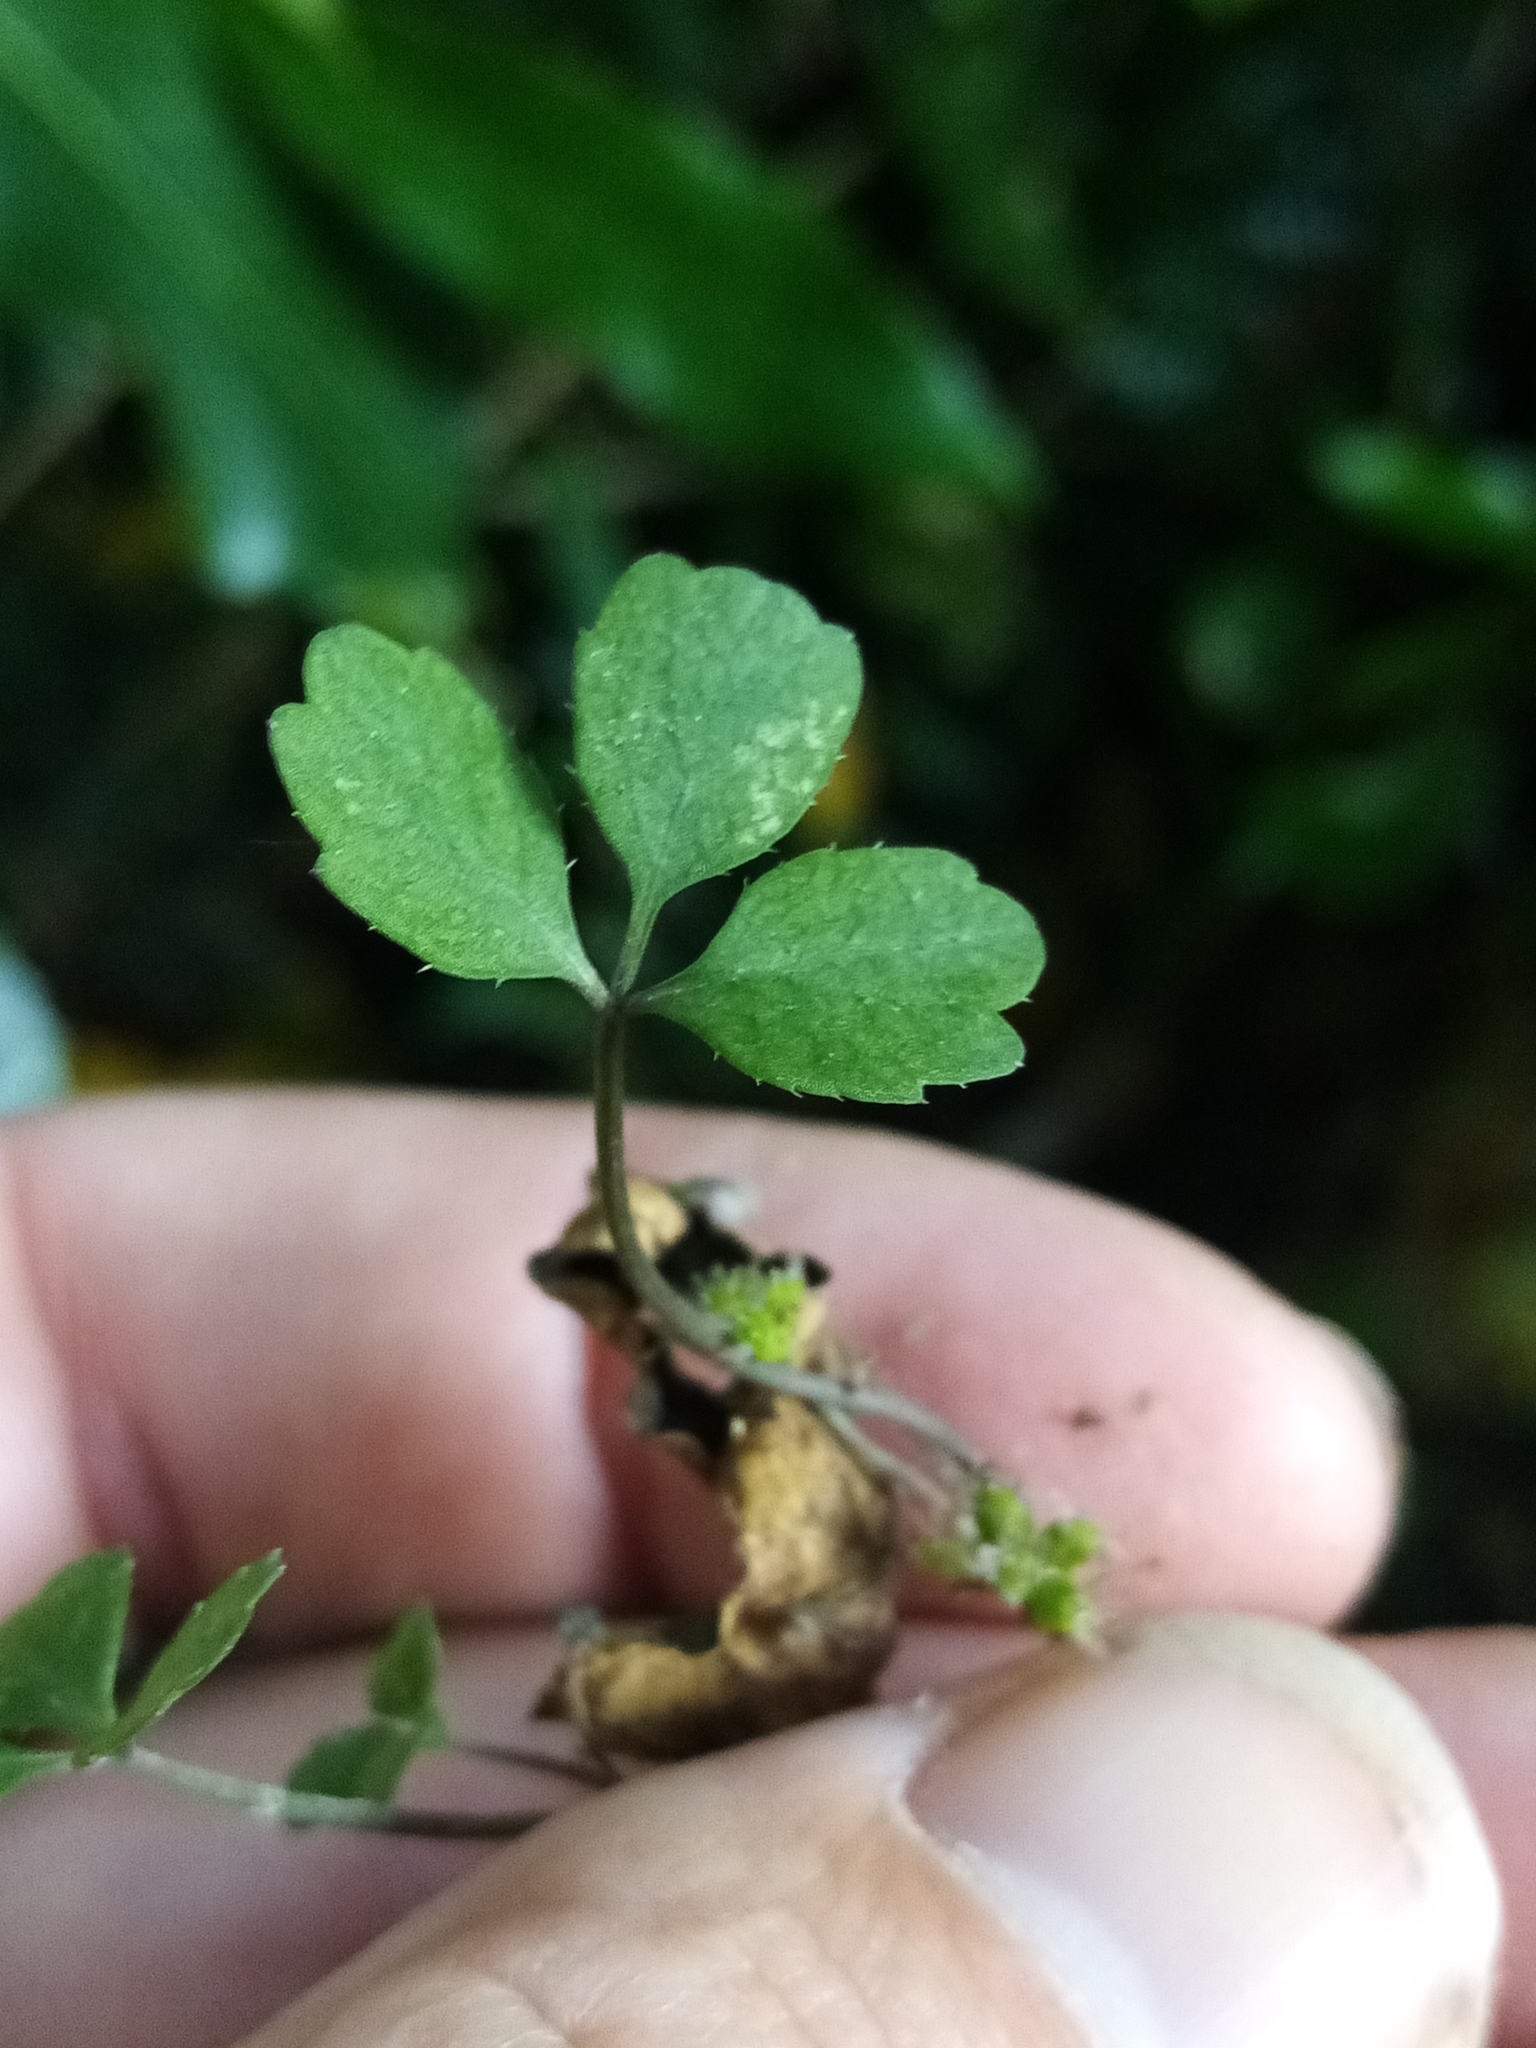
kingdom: Plantae
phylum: Tracheophyta
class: Magnoliopsida
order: Apiales
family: Apiaceae
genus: Azorella
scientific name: Azorella hookeri
